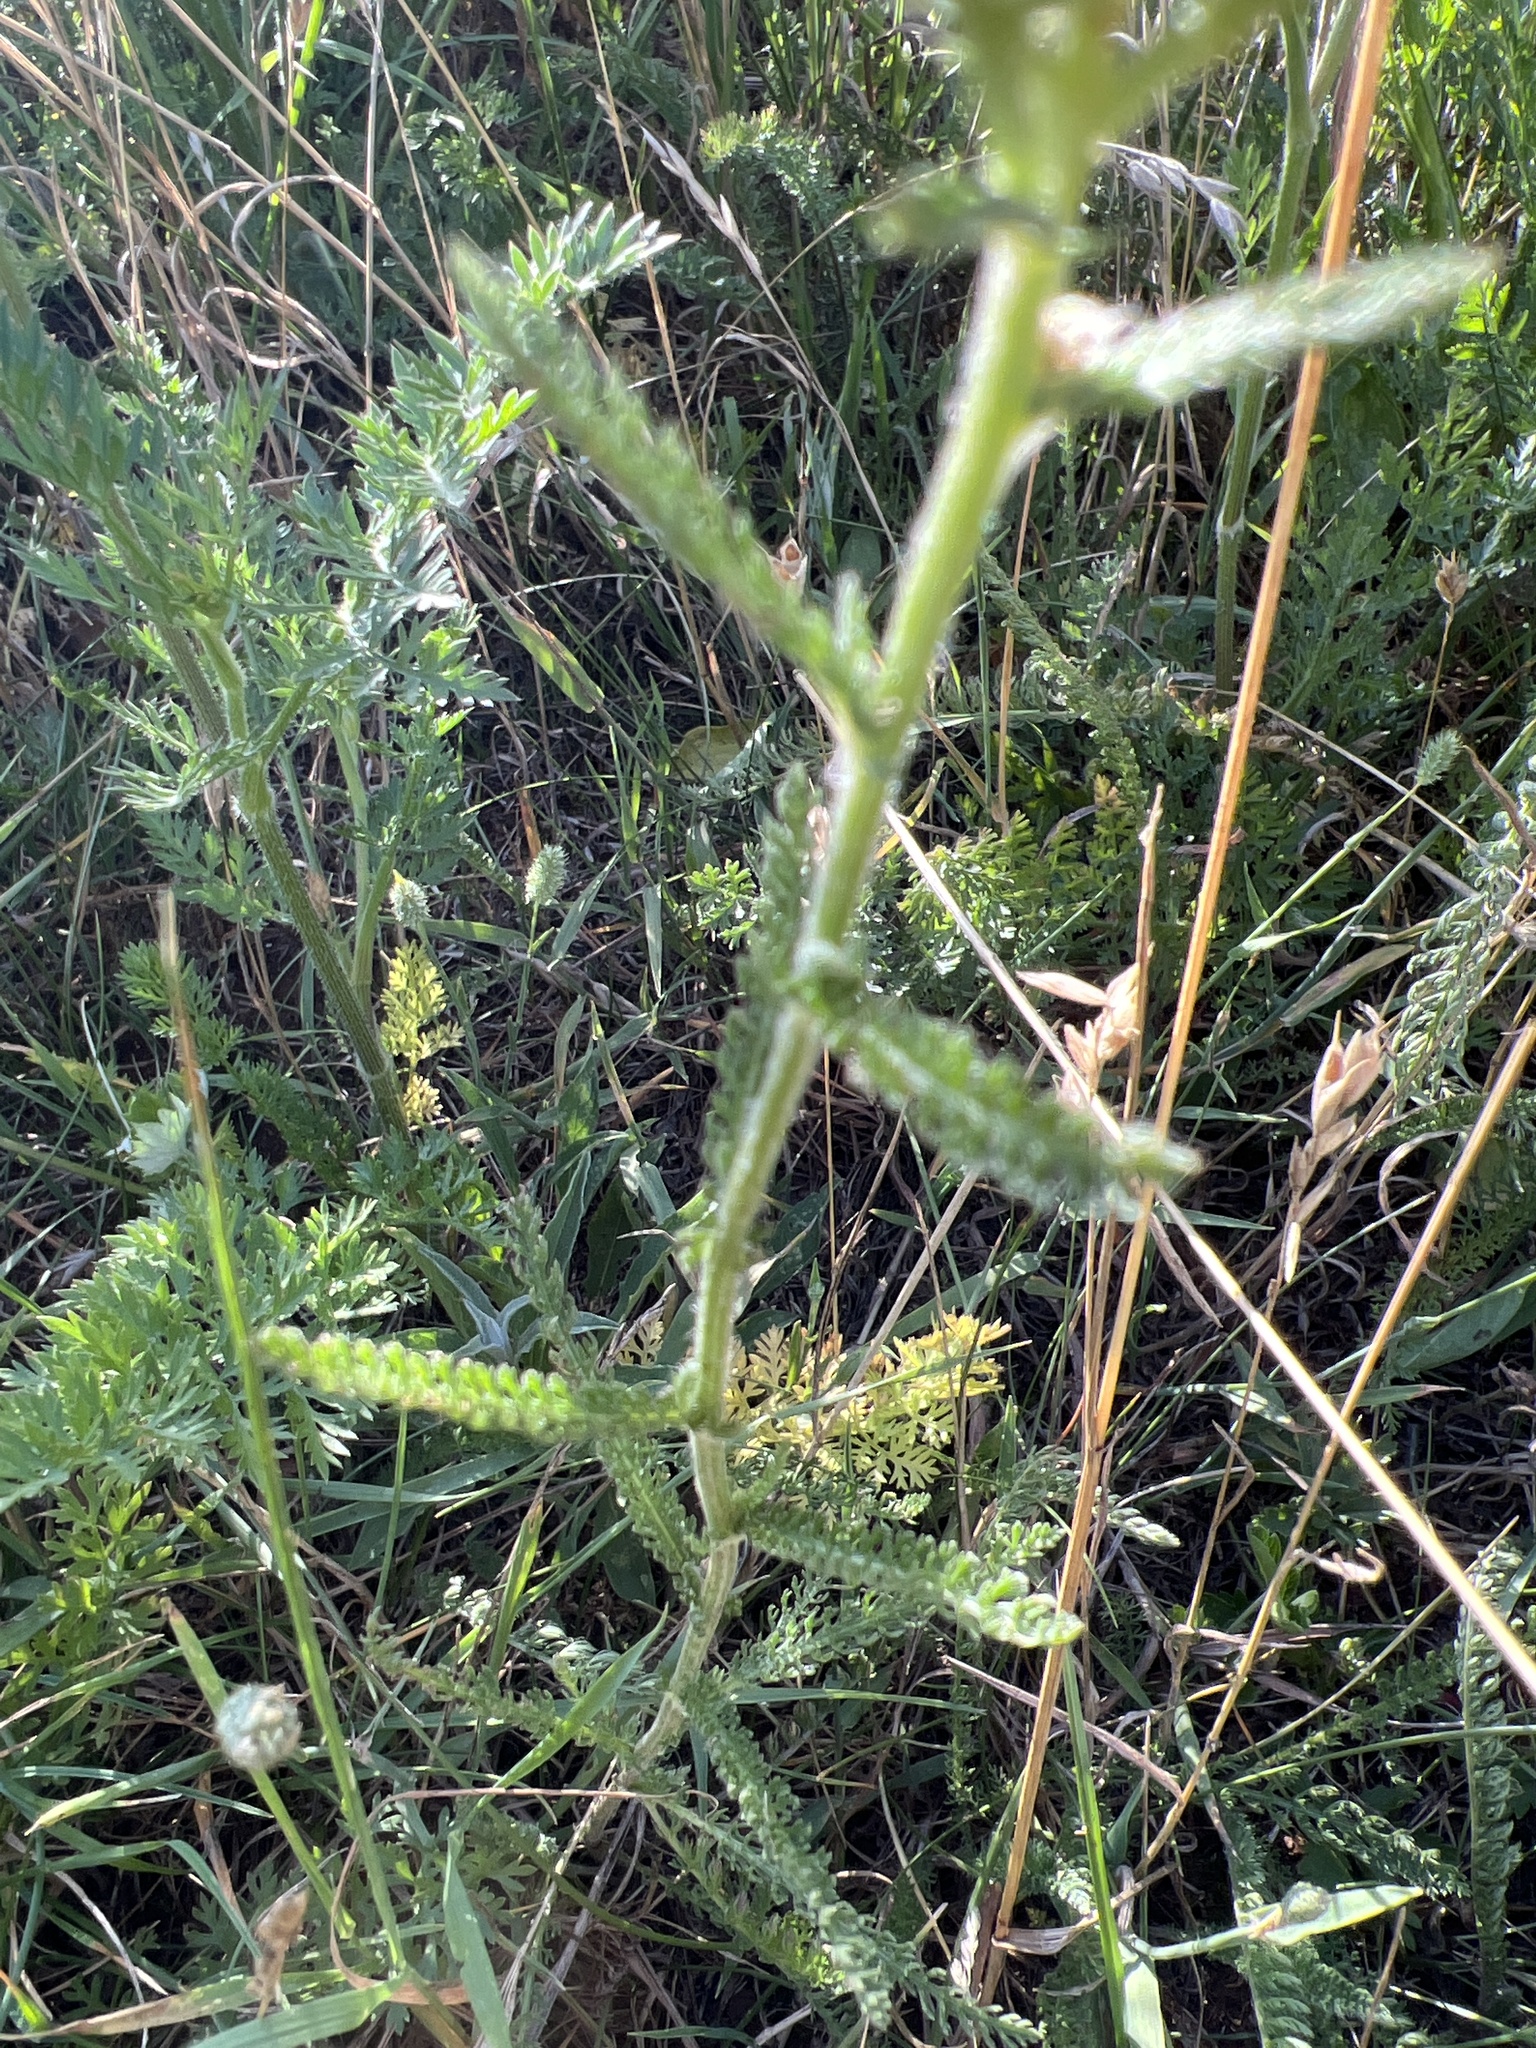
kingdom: Plantae
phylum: Tracheophyta
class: Magnoliopsida
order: Asterales
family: Asteraceae
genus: Achillea
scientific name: Achillea millefolium
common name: Yarrow
